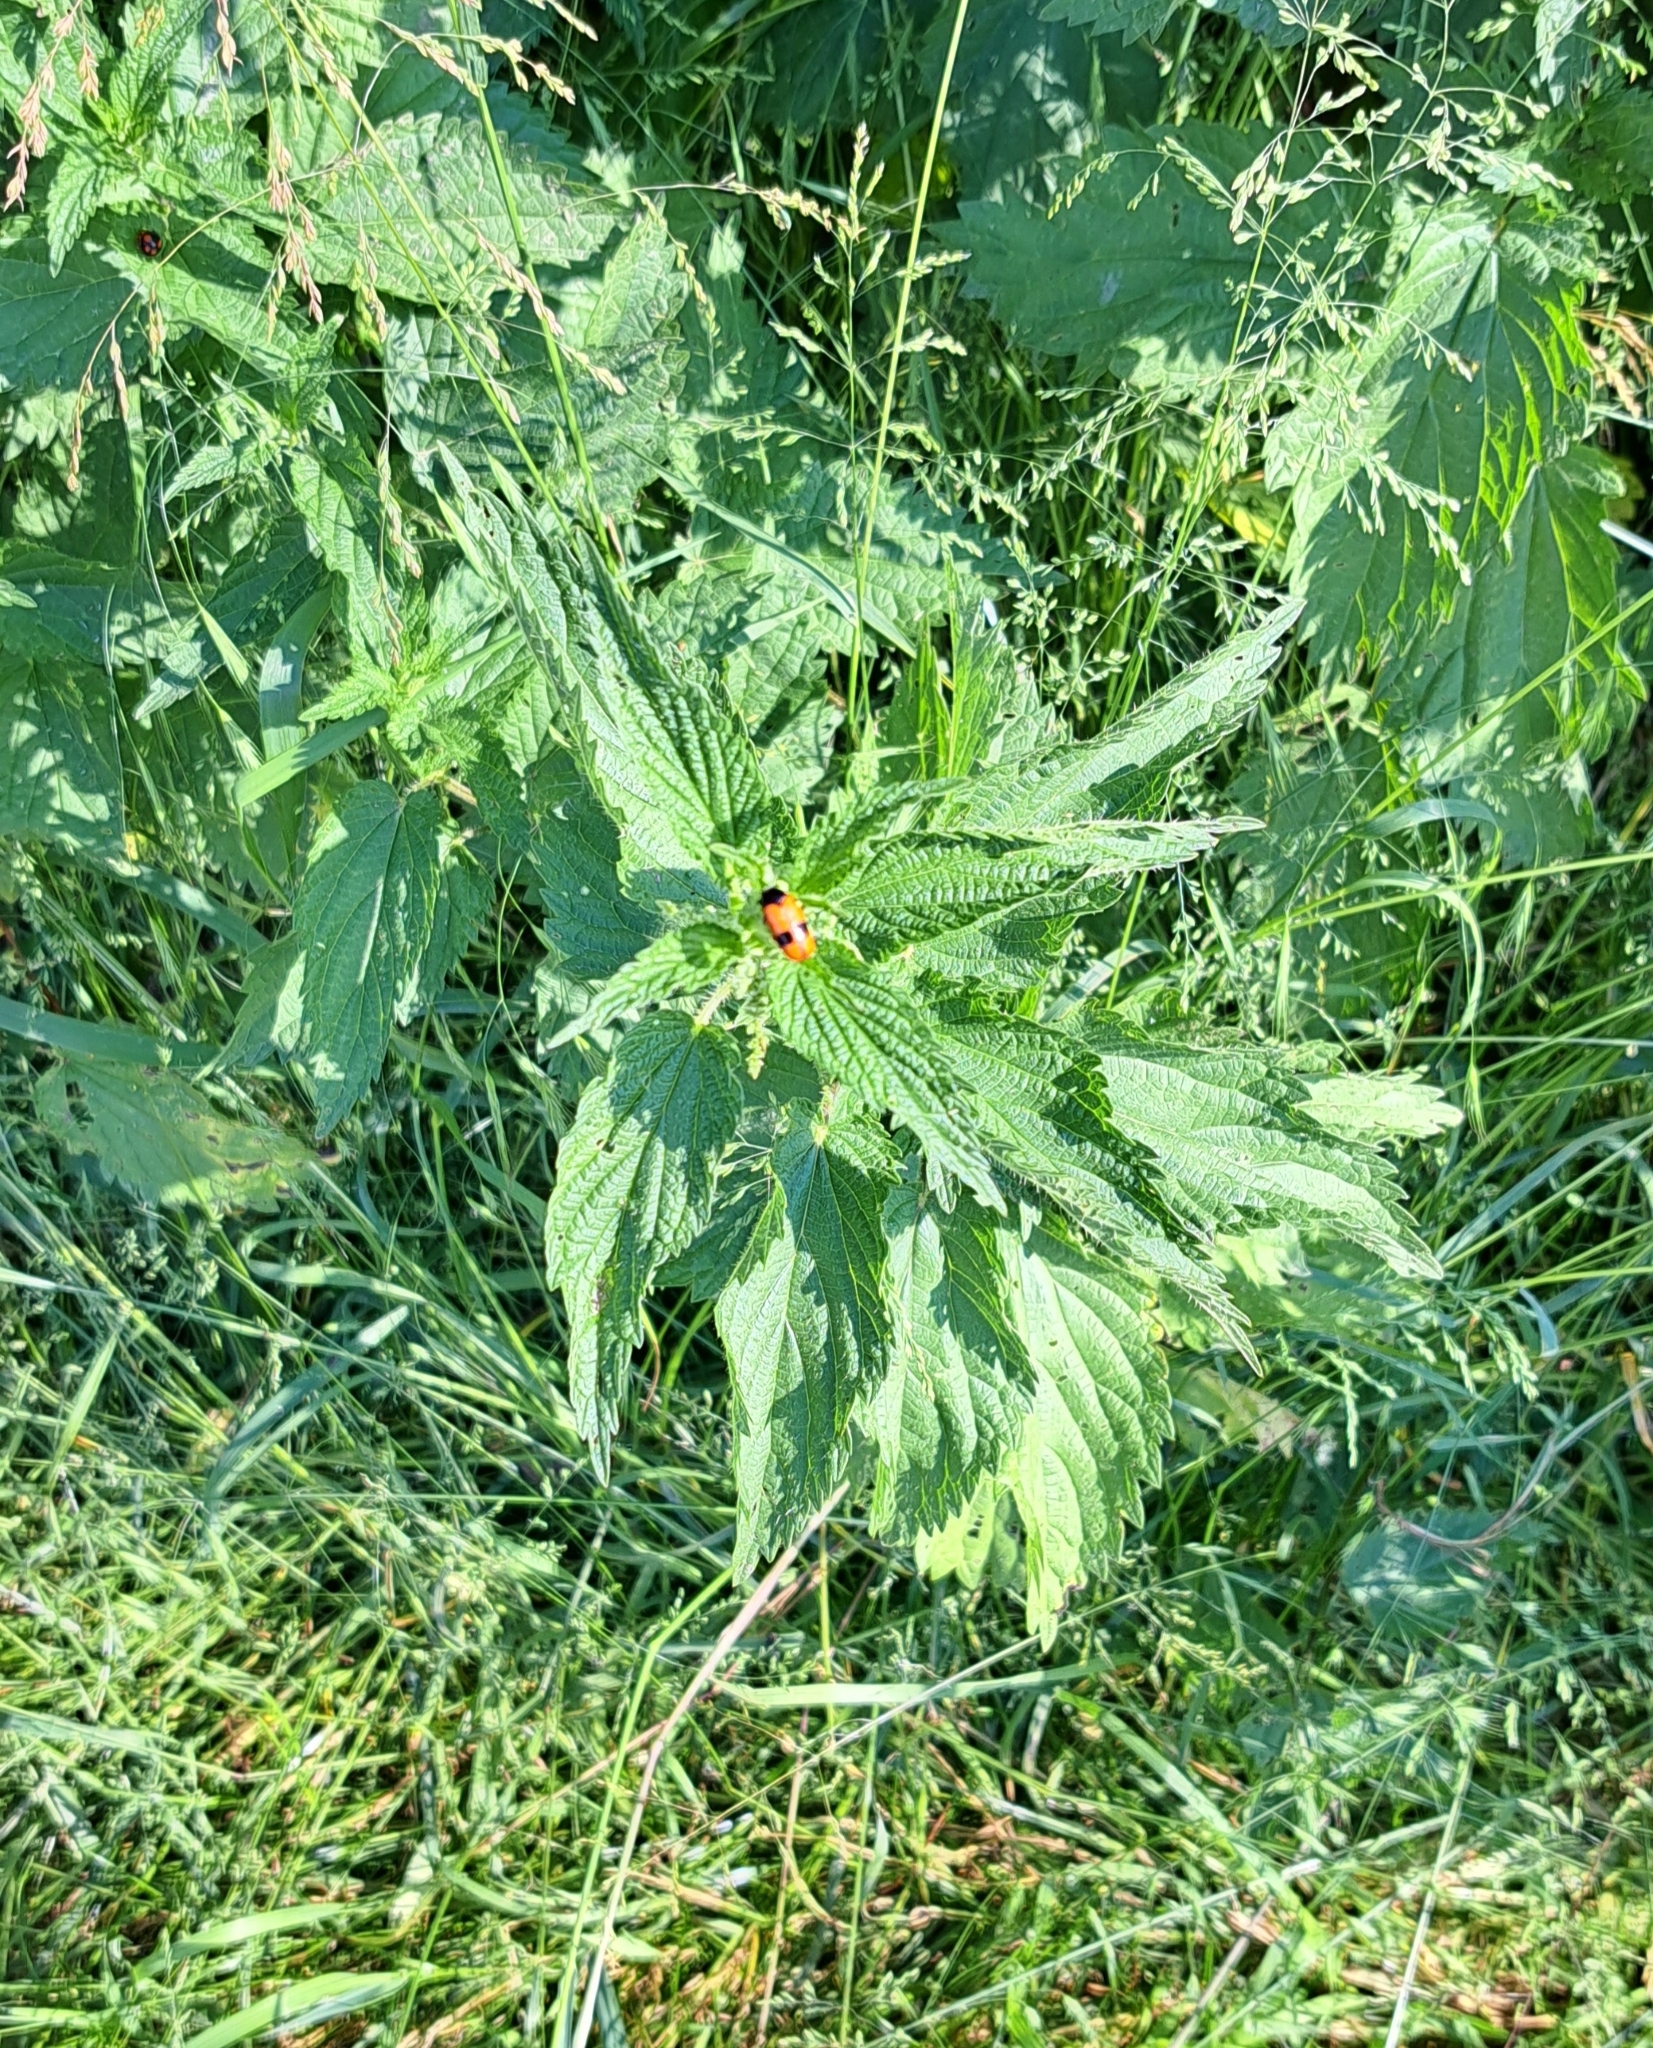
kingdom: Animalia
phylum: Arthropoda
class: Insecta
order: Coleoptera
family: Chrysomelidae
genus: Clytra
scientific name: Clytra laeviuscula
